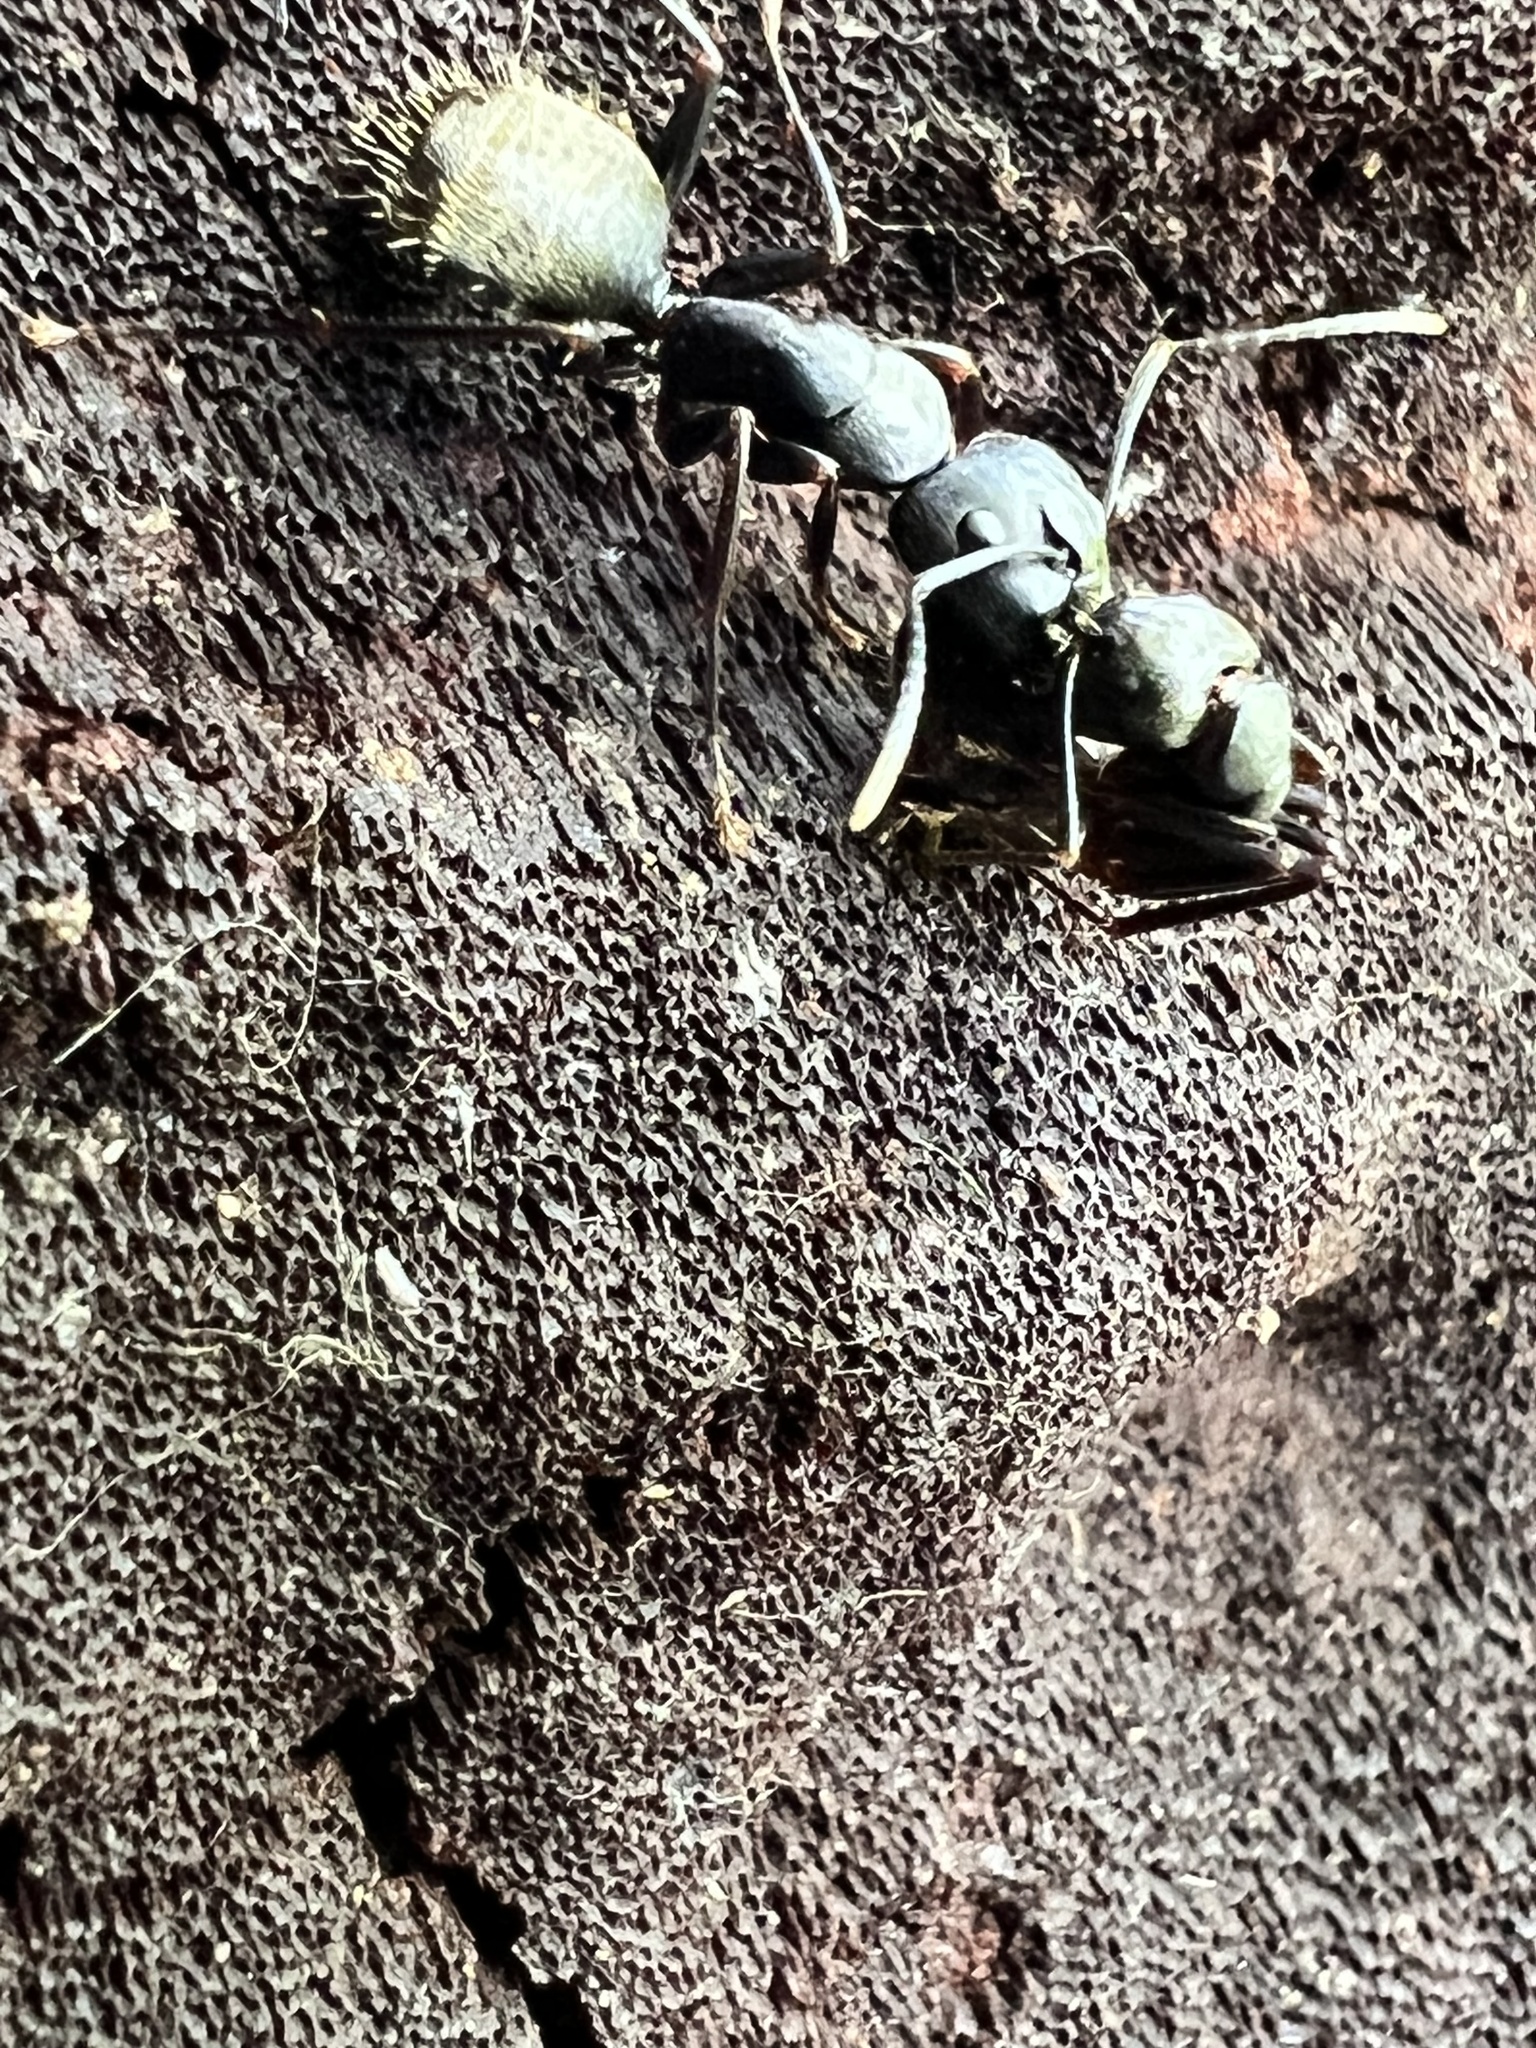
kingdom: Animalia
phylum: Arthropoda
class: Insecta
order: Hymenoptera
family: Formicidae
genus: Camponotus
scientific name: Camponotus pennsylvanicus
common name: Black carpenter ant
